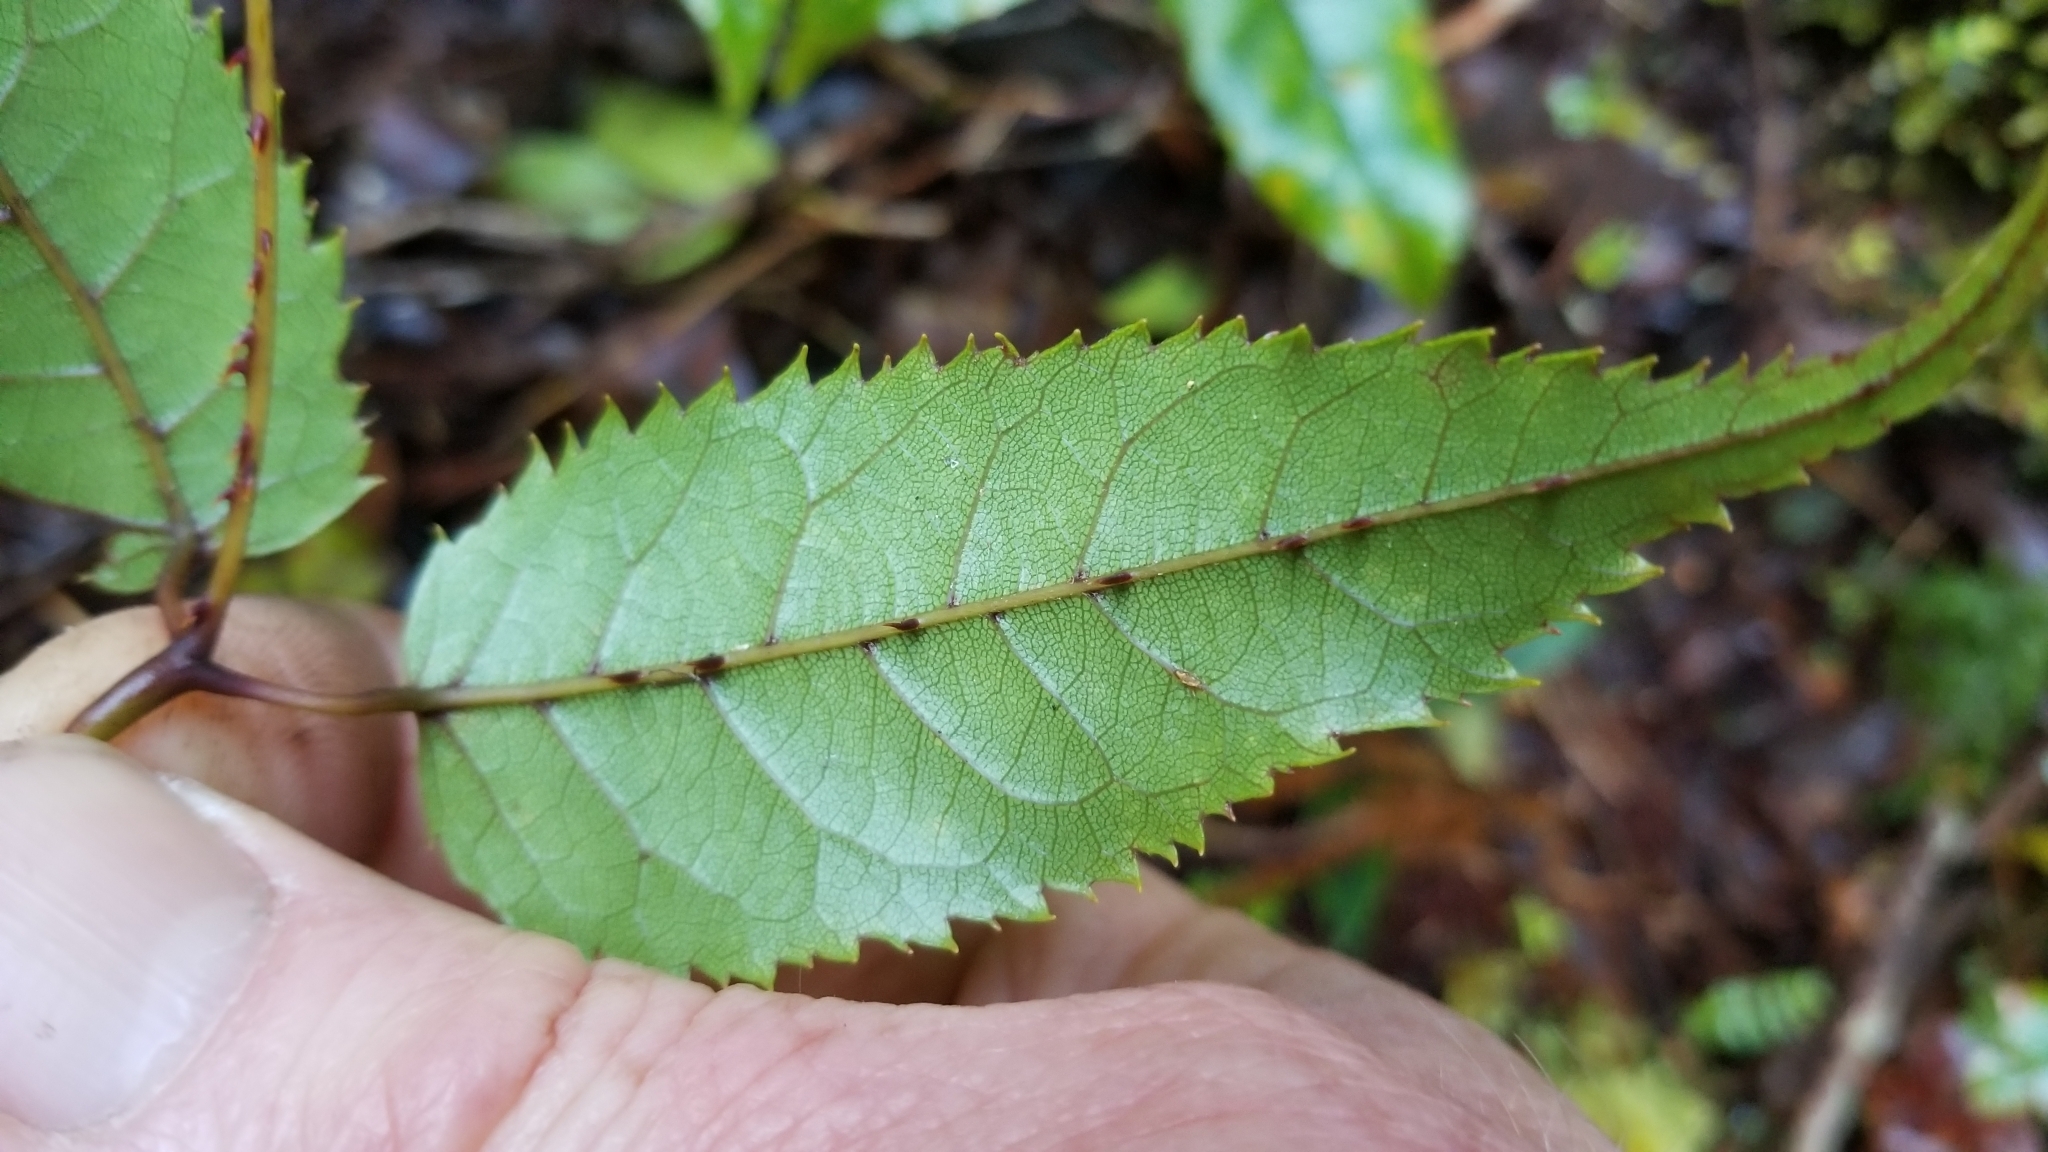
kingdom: Plantae
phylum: Tracheophyta
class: Magnoliopsida
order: Rosales
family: Rosaceae
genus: Rubus
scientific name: Rubus cissoides
